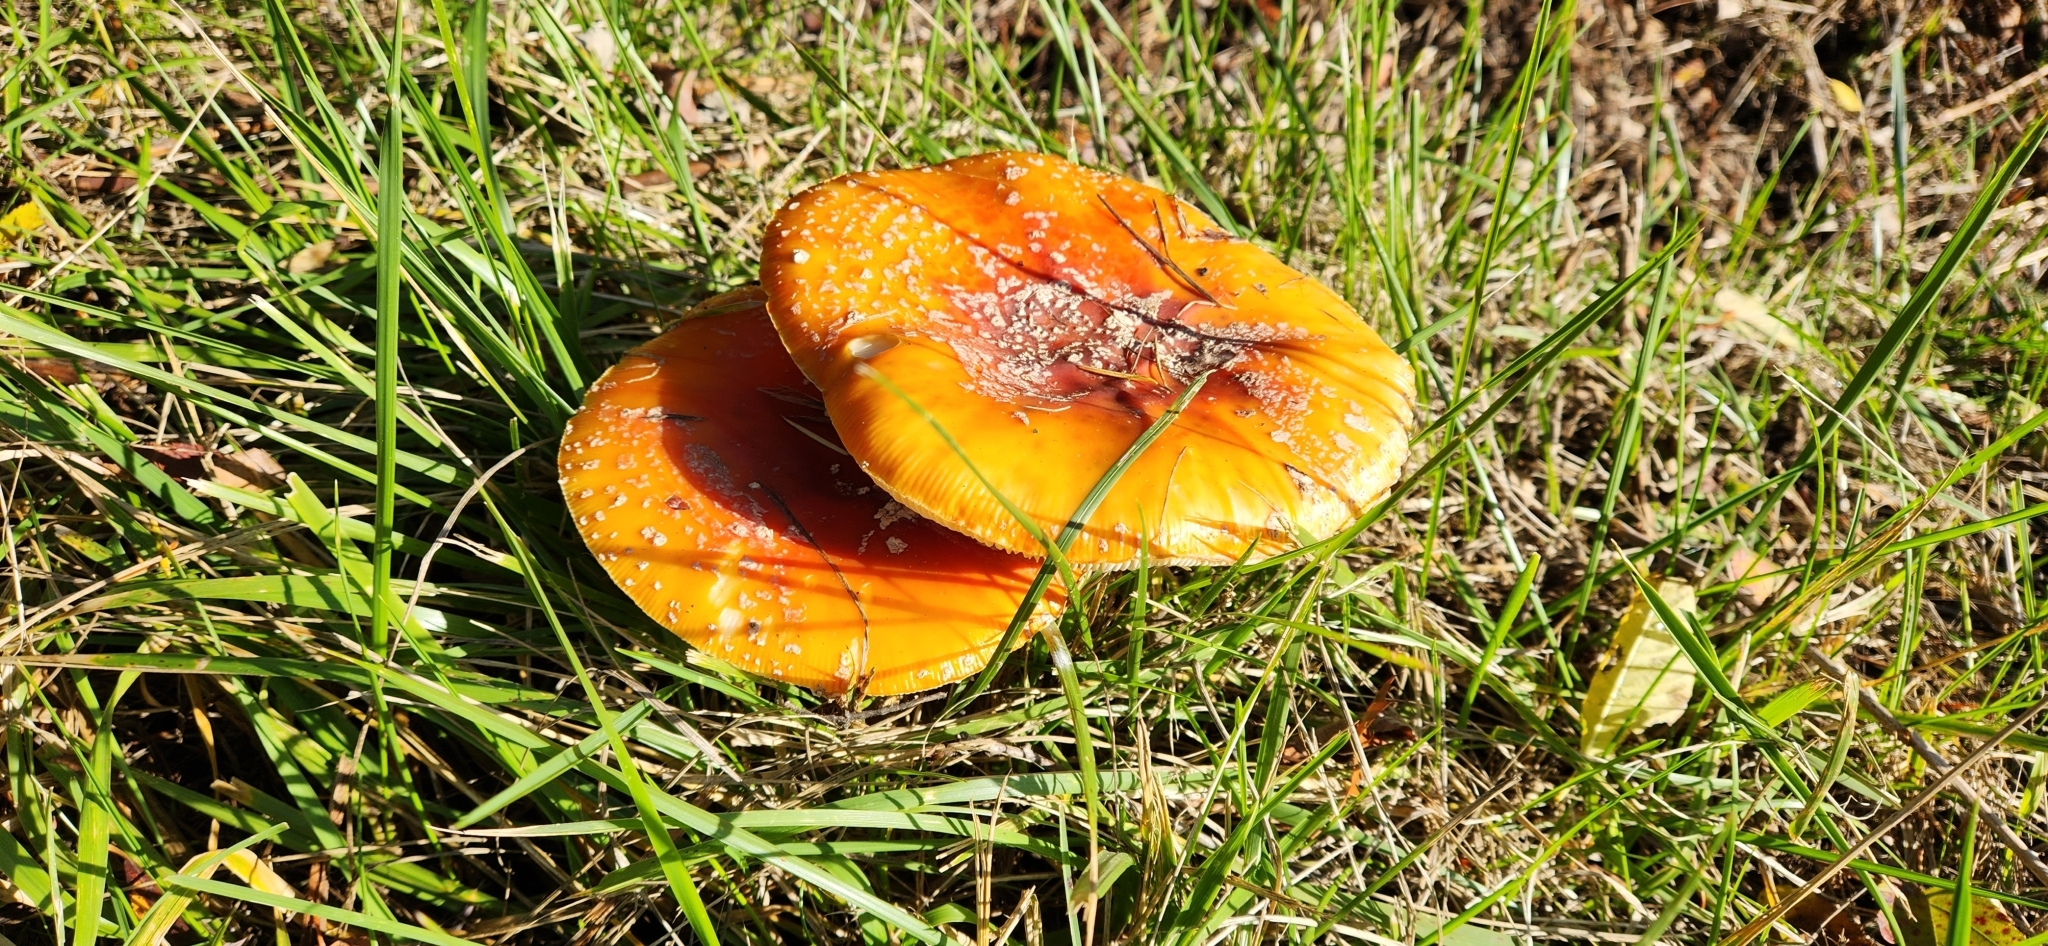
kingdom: Fungi
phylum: Basidiomycota
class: Agaricomycetes
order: Agaricales
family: Amanitaceae
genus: Amanita
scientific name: Amanita muscaria
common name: Fly agaric
